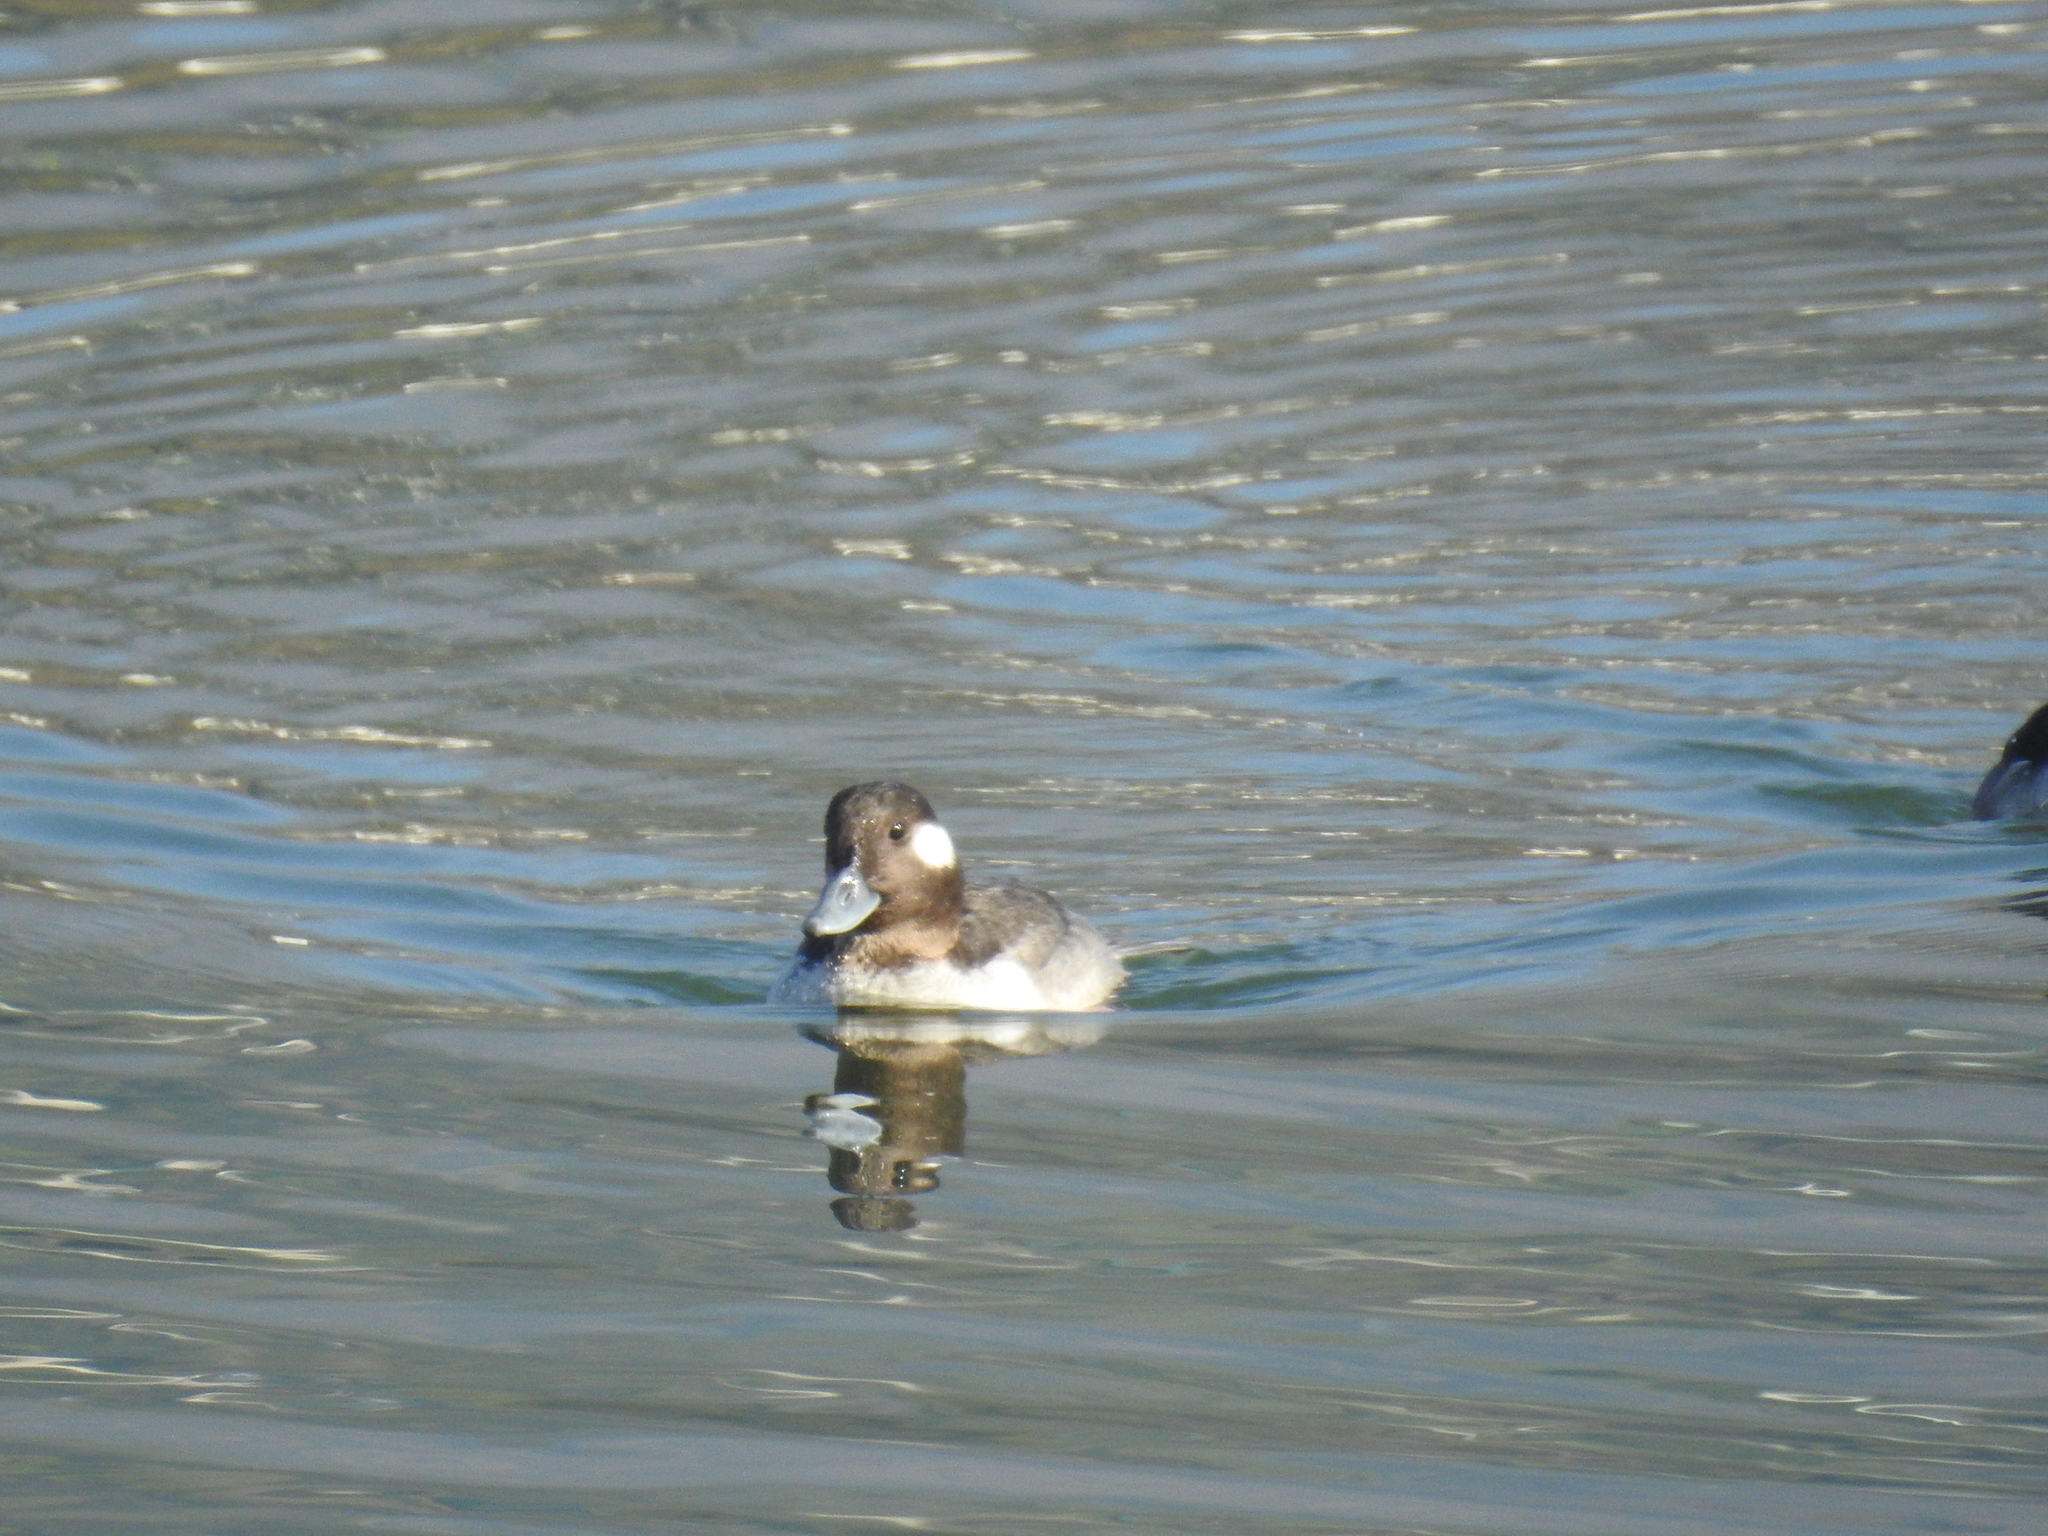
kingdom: Animalia
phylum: Chordata
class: Aves
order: Anseriformes
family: Anatidae
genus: Bucephala
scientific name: Bucephala albeola
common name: Bufflehead
